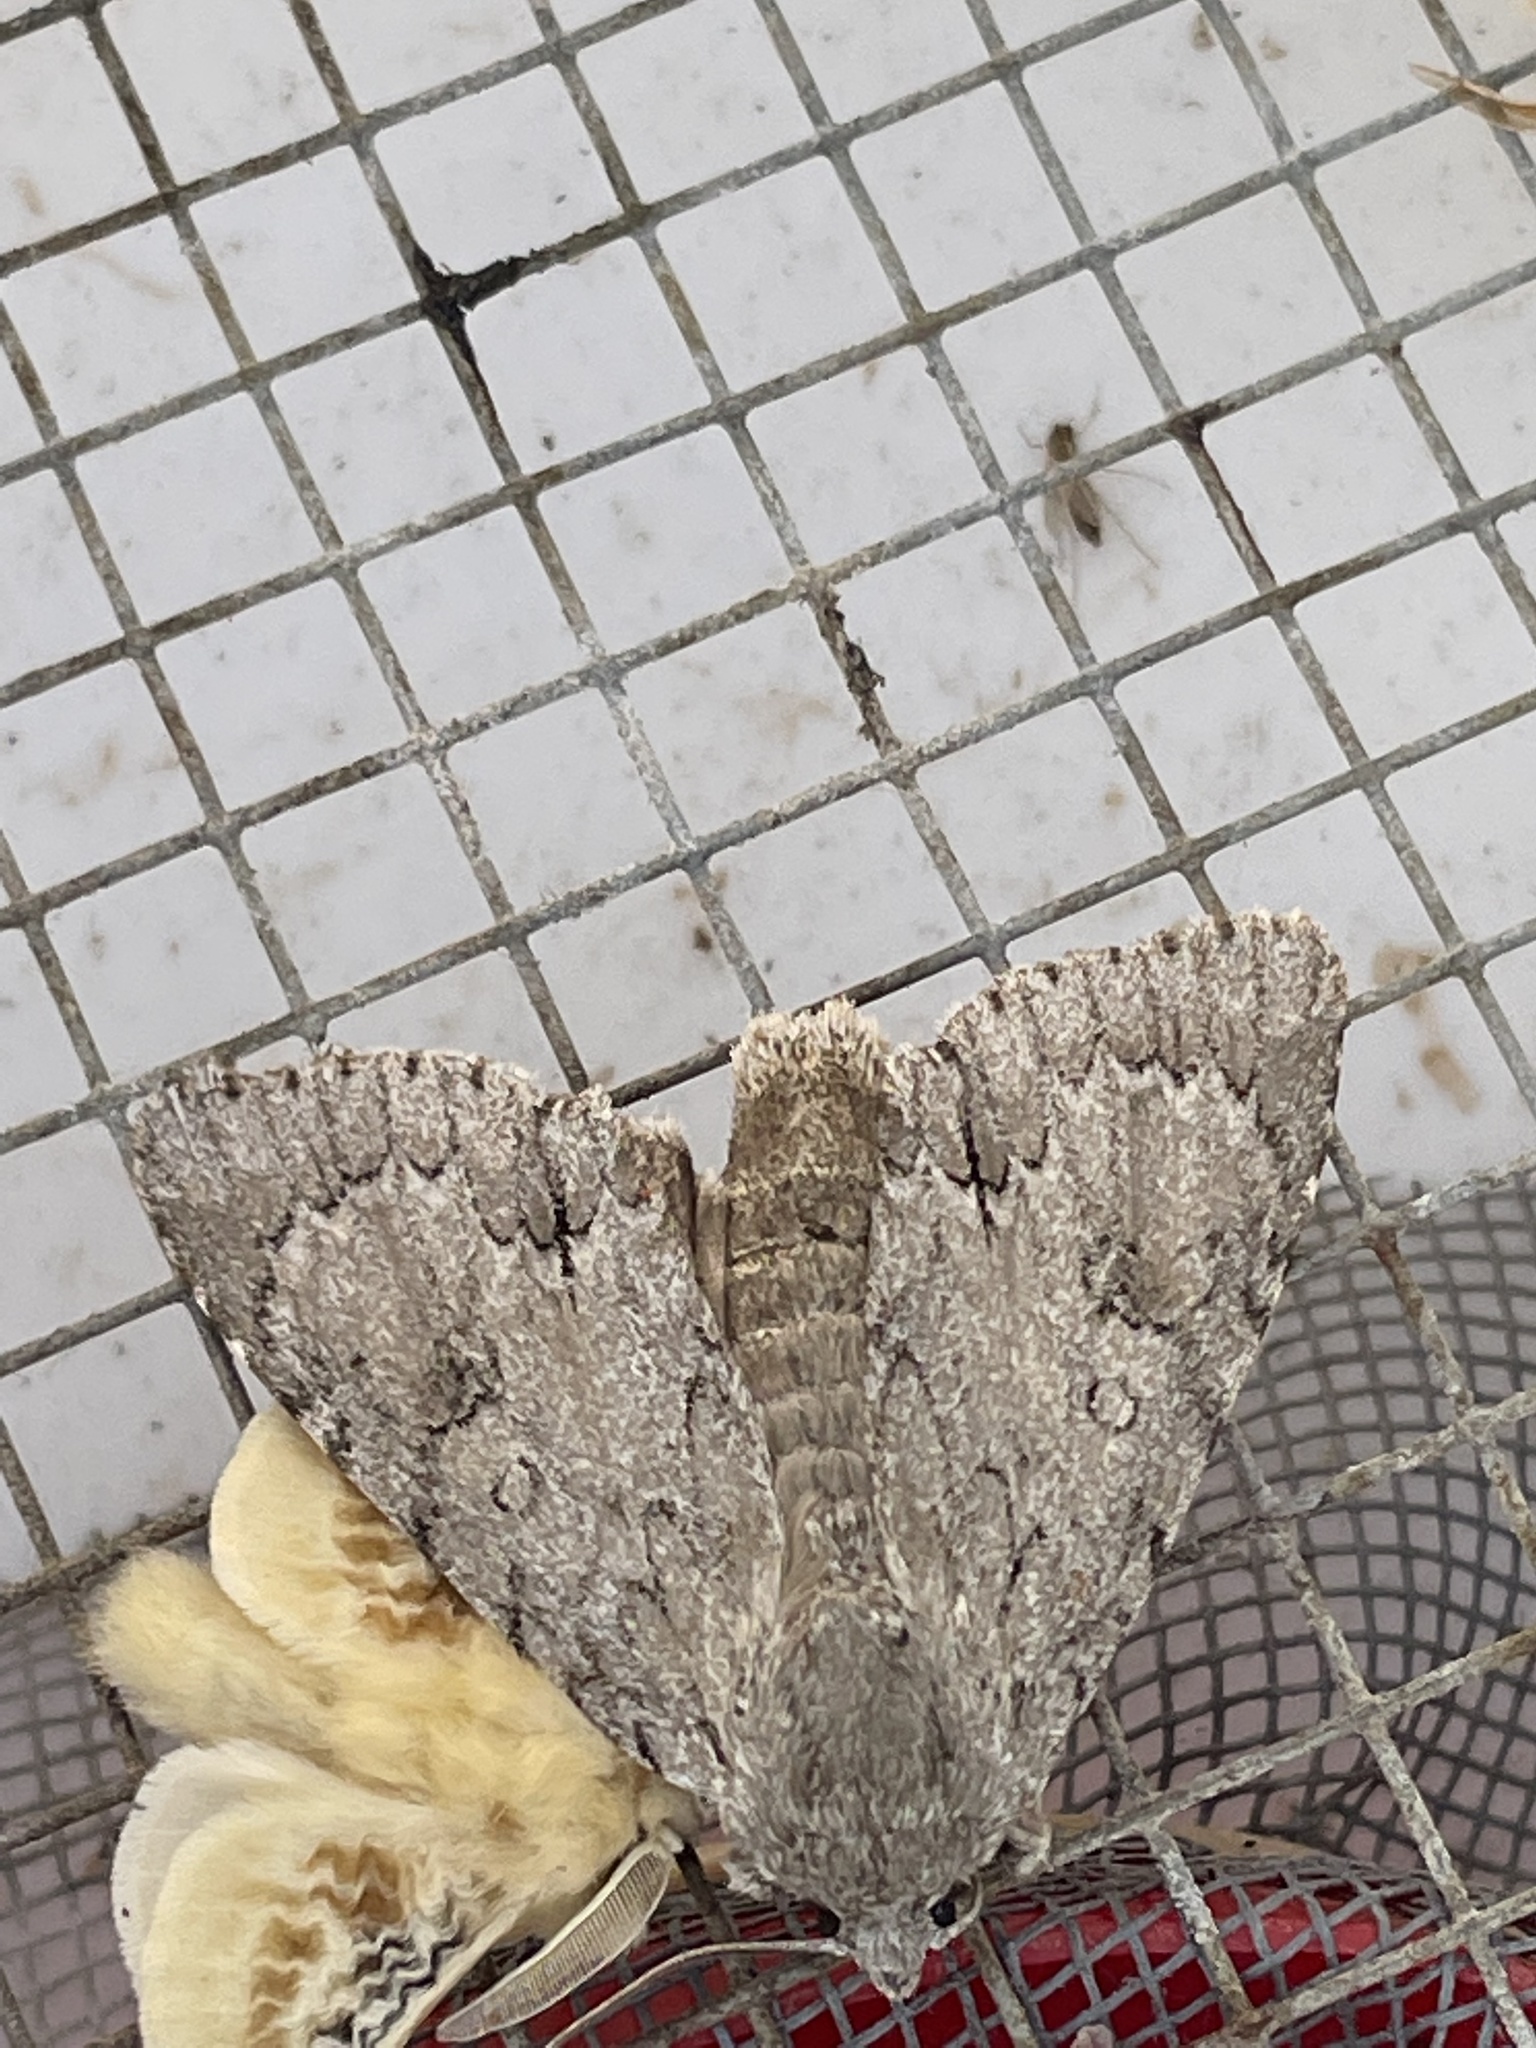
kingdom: Animalia
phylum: Arthropoda
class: Insecta
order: Lepidoptera
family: Megalopygidae
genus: Megalopyge
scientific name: Megalopyge crispata
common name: Black-waved flannel moth
